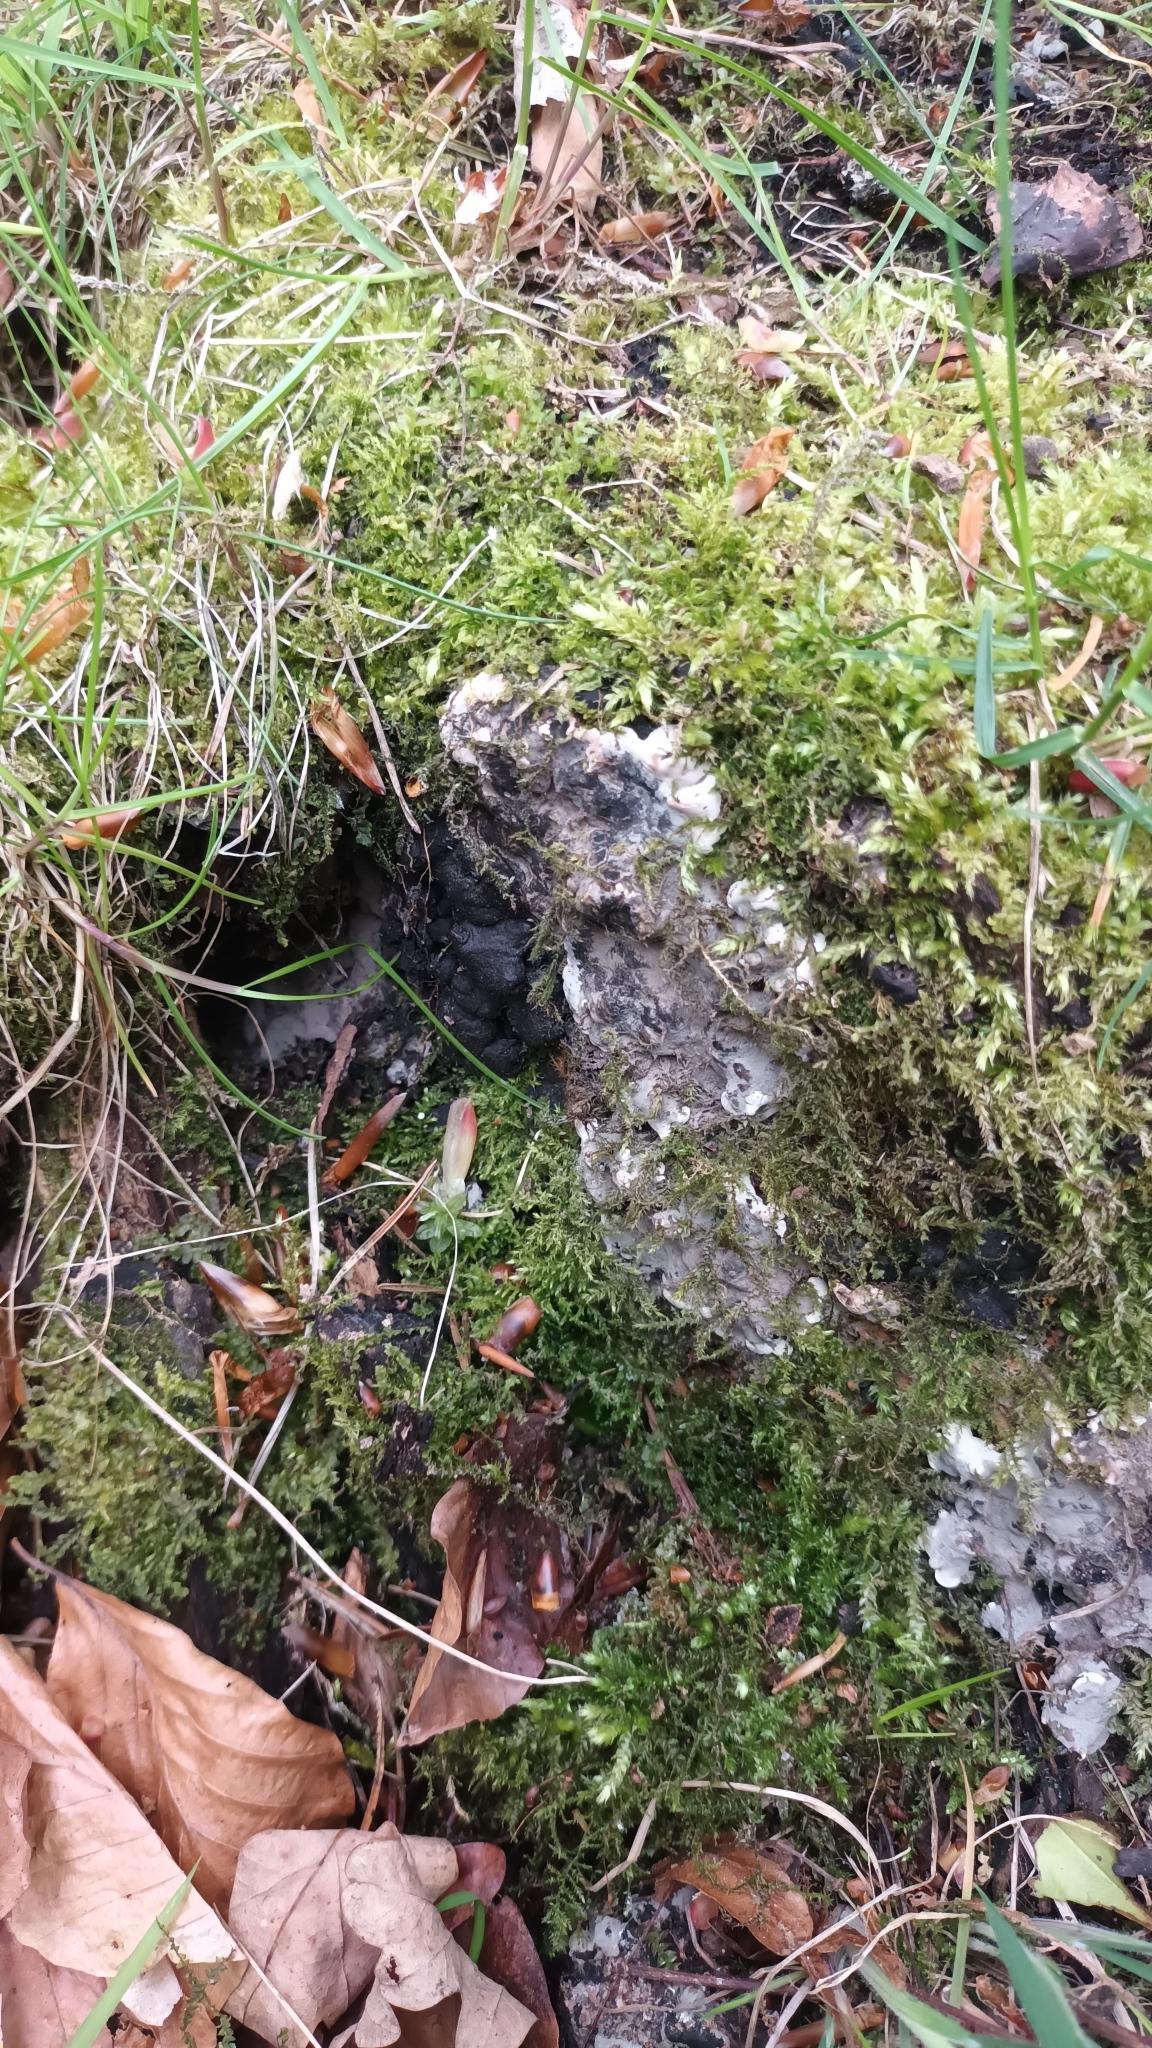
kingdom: Fungi
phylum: Ascomycota
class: Sordariomycetes
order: Xylariales
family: Xylariaceae
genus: Kretzschmaria
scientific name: Kretzschmaria deusta
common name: Brittle cinder
